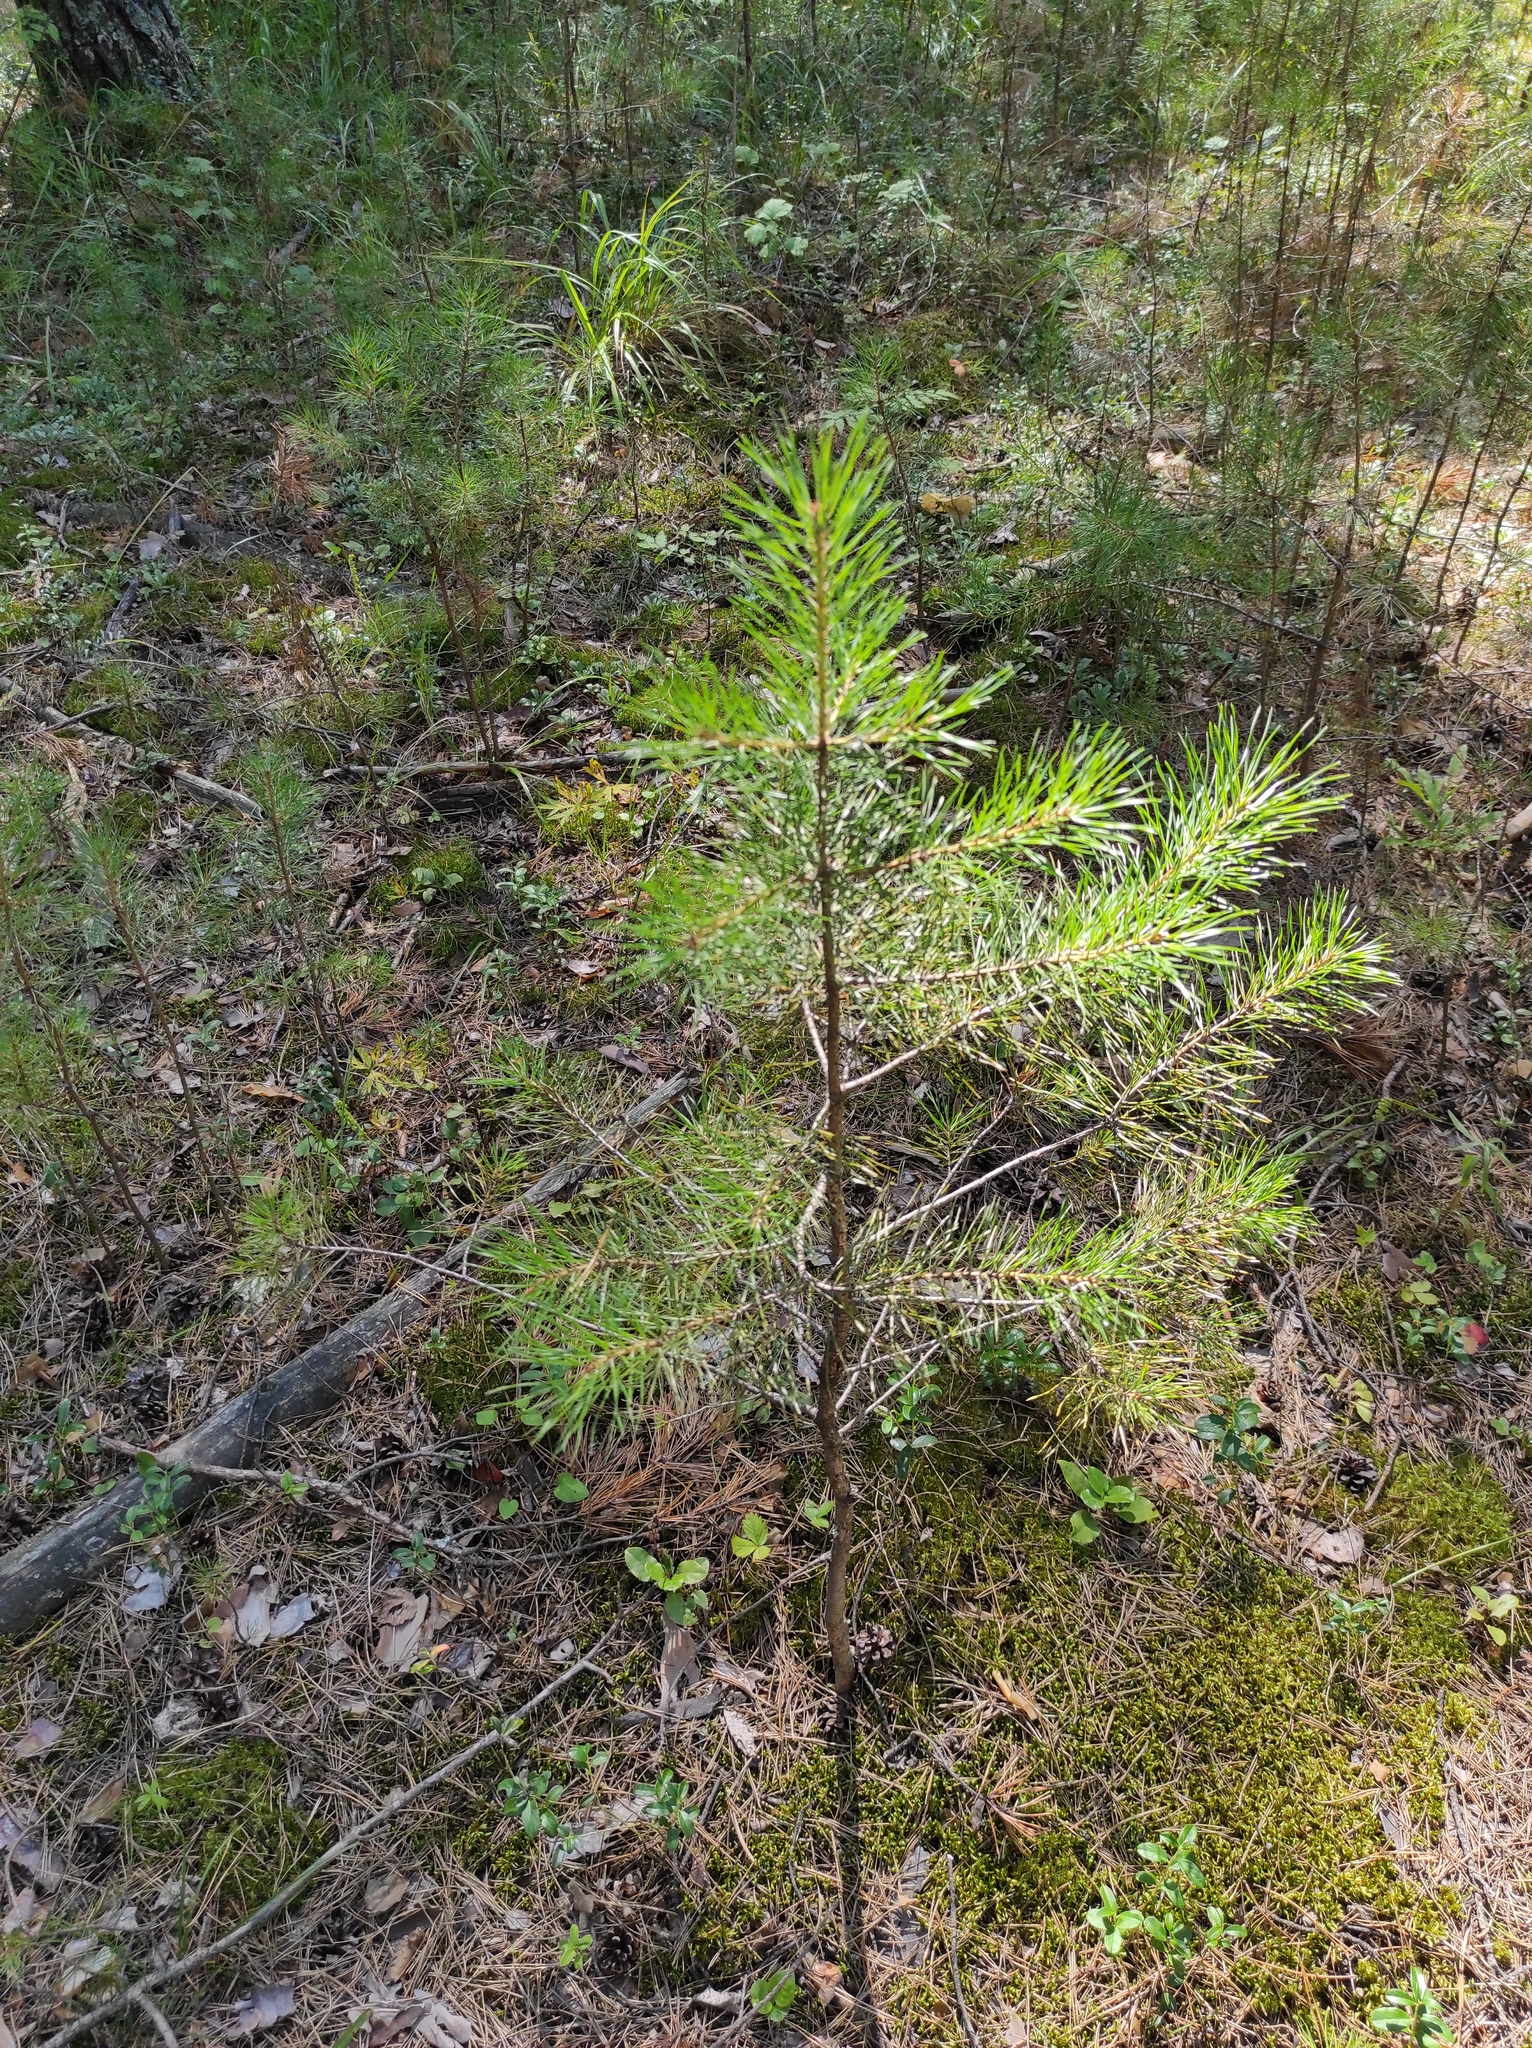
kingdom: Plantae
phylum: Tracheophyta
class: Pinopsida
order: Pinales
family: Pinaceae
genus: Pinus
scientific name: Pinus sylvestris
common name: Scots pine
